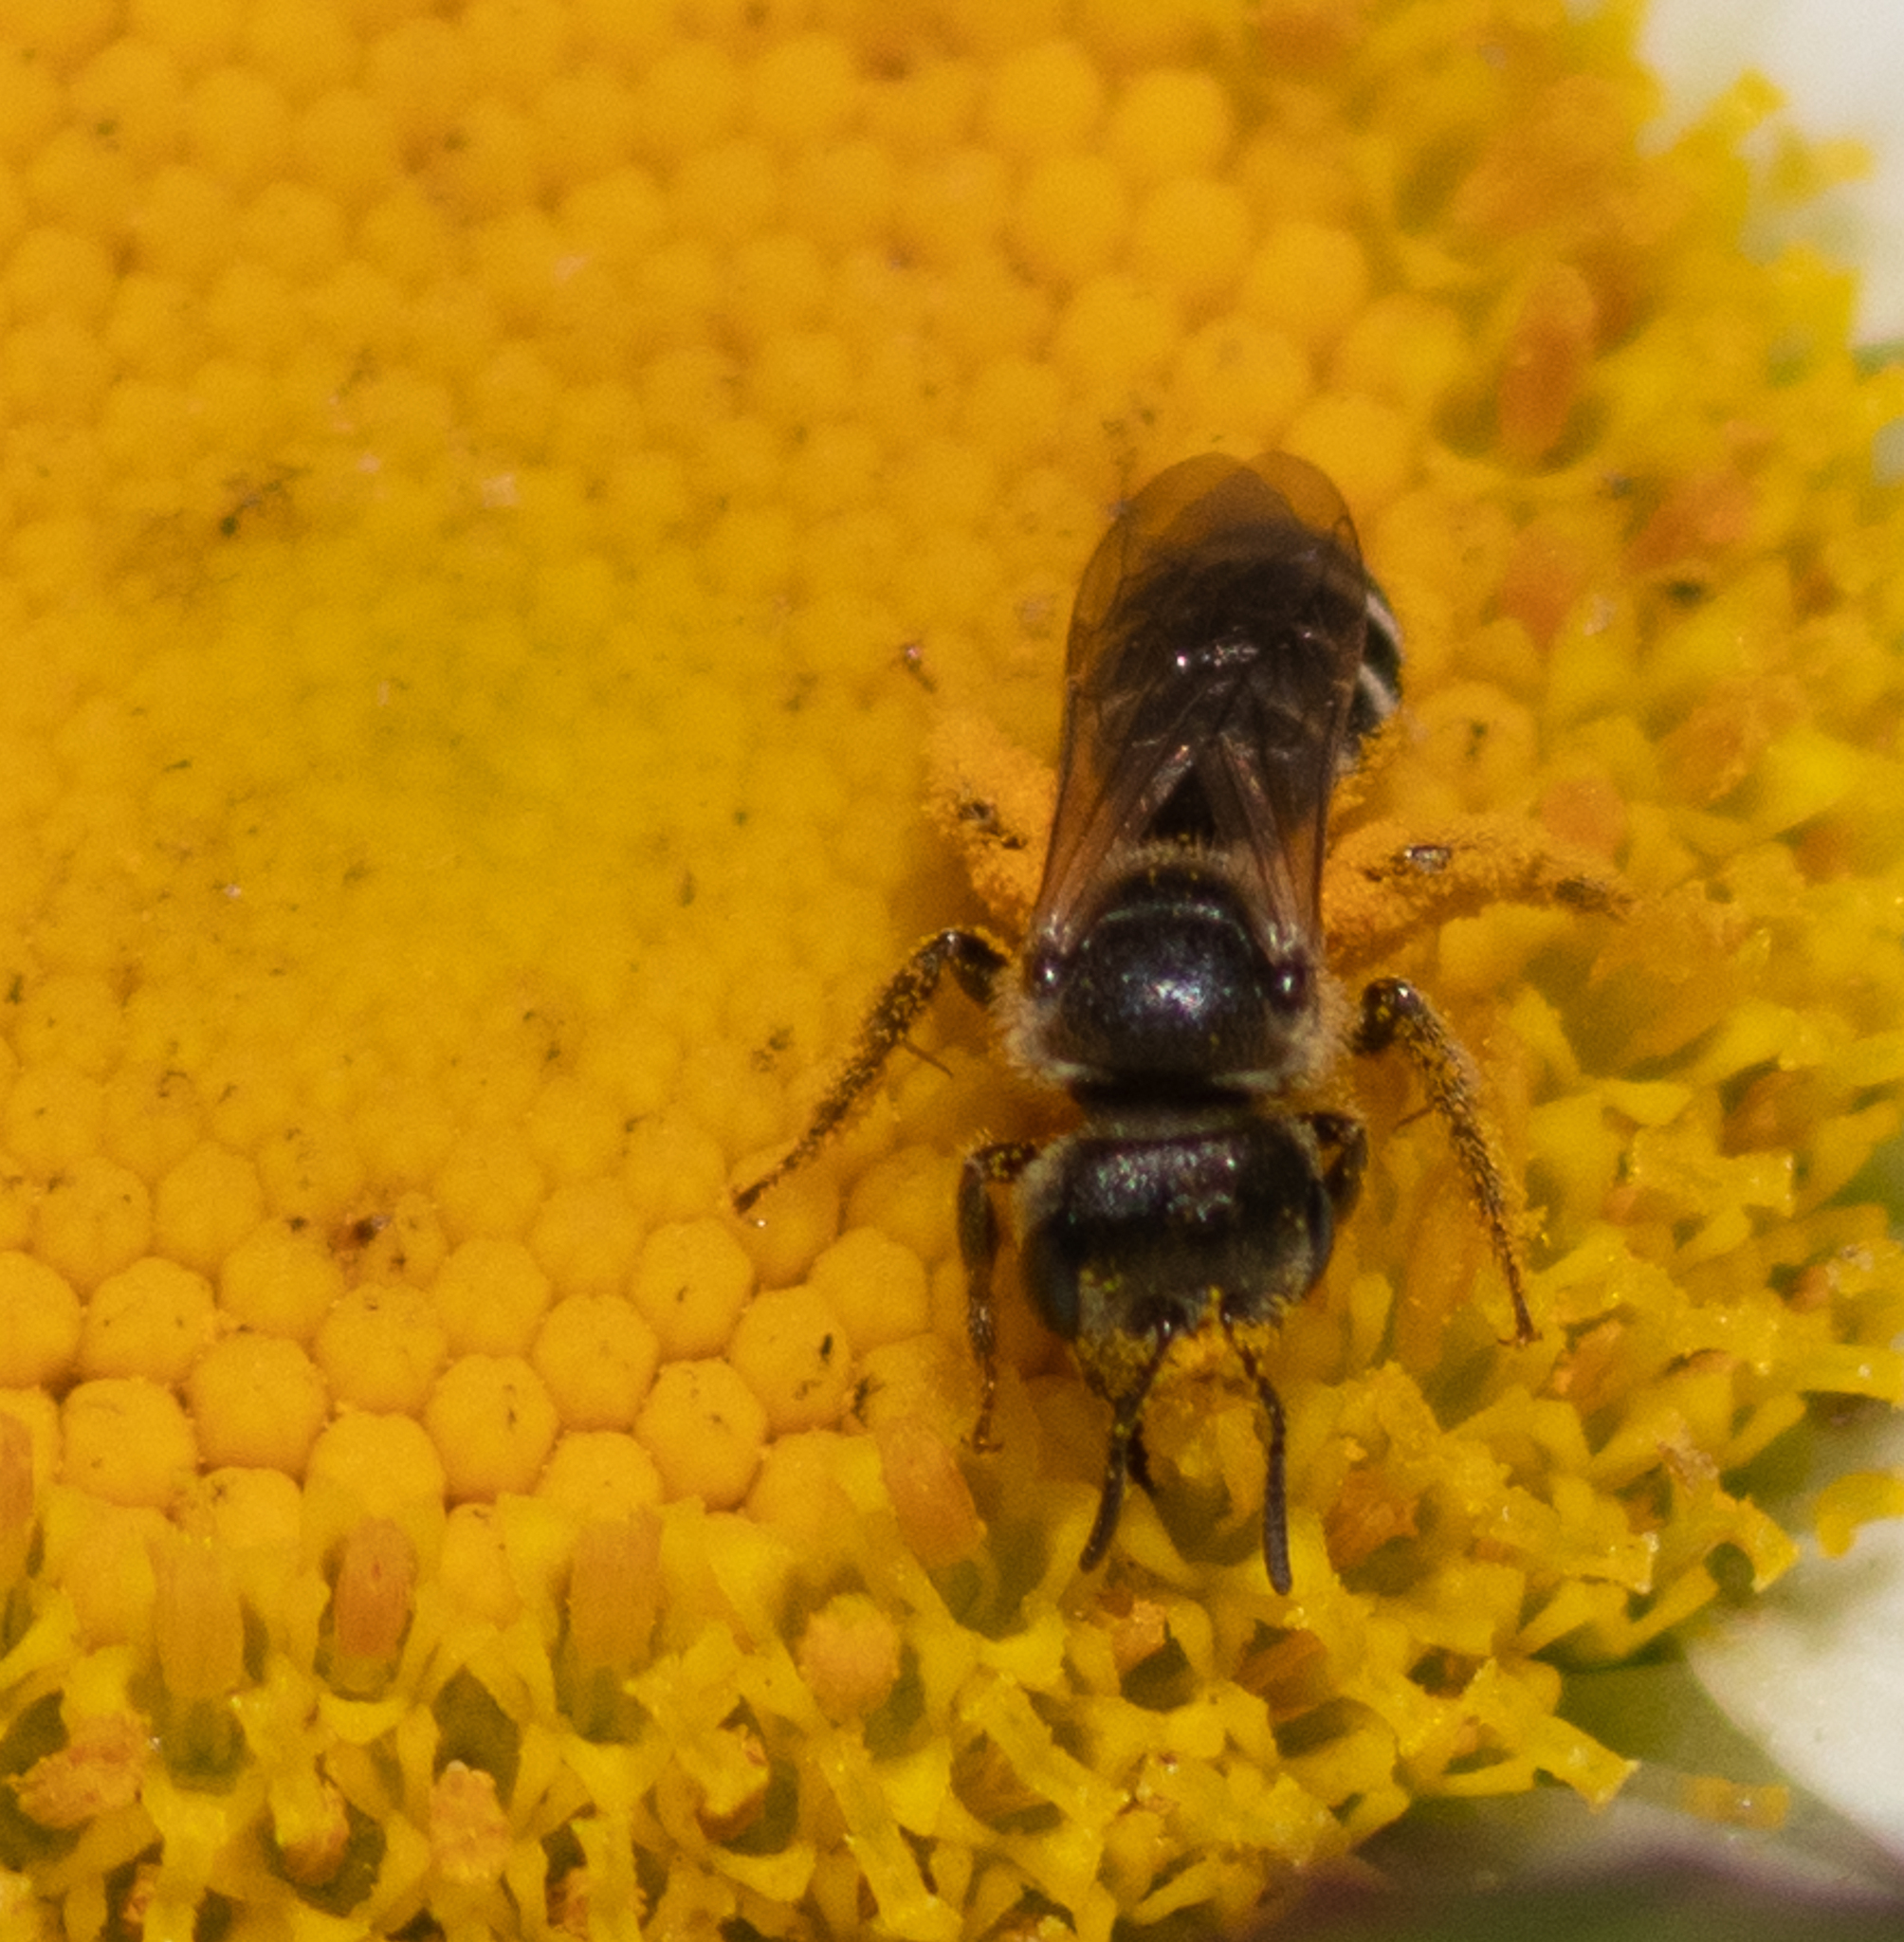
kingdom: Animalia
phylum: Arthropoda
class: Insecta
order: Hymenoptera
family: Halictidae
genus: Halictus
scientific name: Halictus ligatus
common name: Ligated furrow bee
